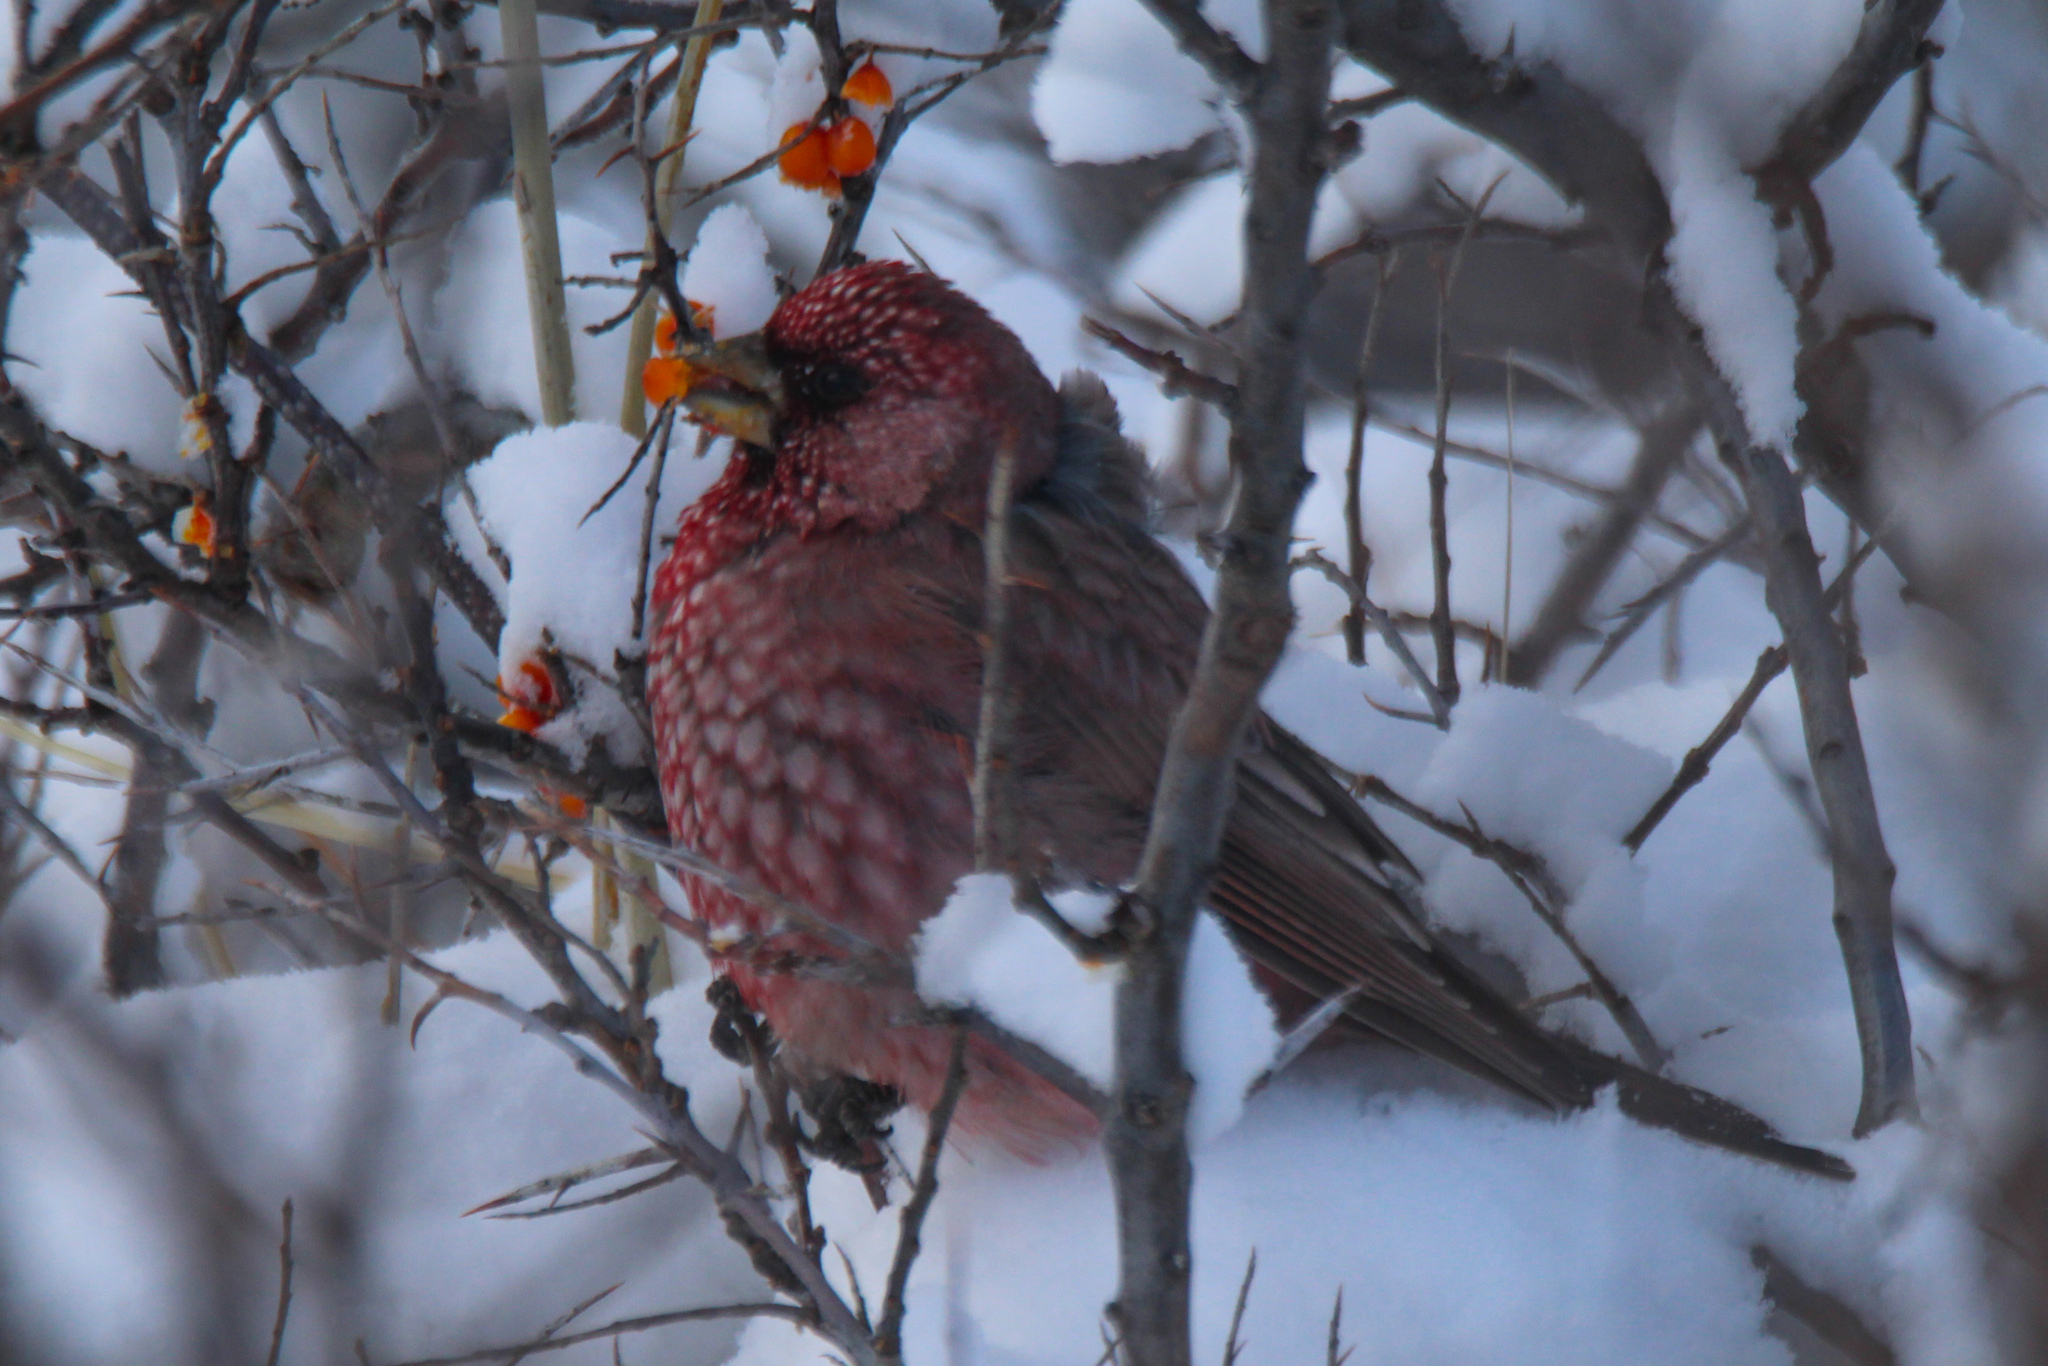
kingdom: Animalia
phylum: Chordata
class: Aves
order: Passeriformes
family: Fringillidae
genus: Carpodacus
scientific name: Carpodacus rubicilla
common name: Great rosefinch
